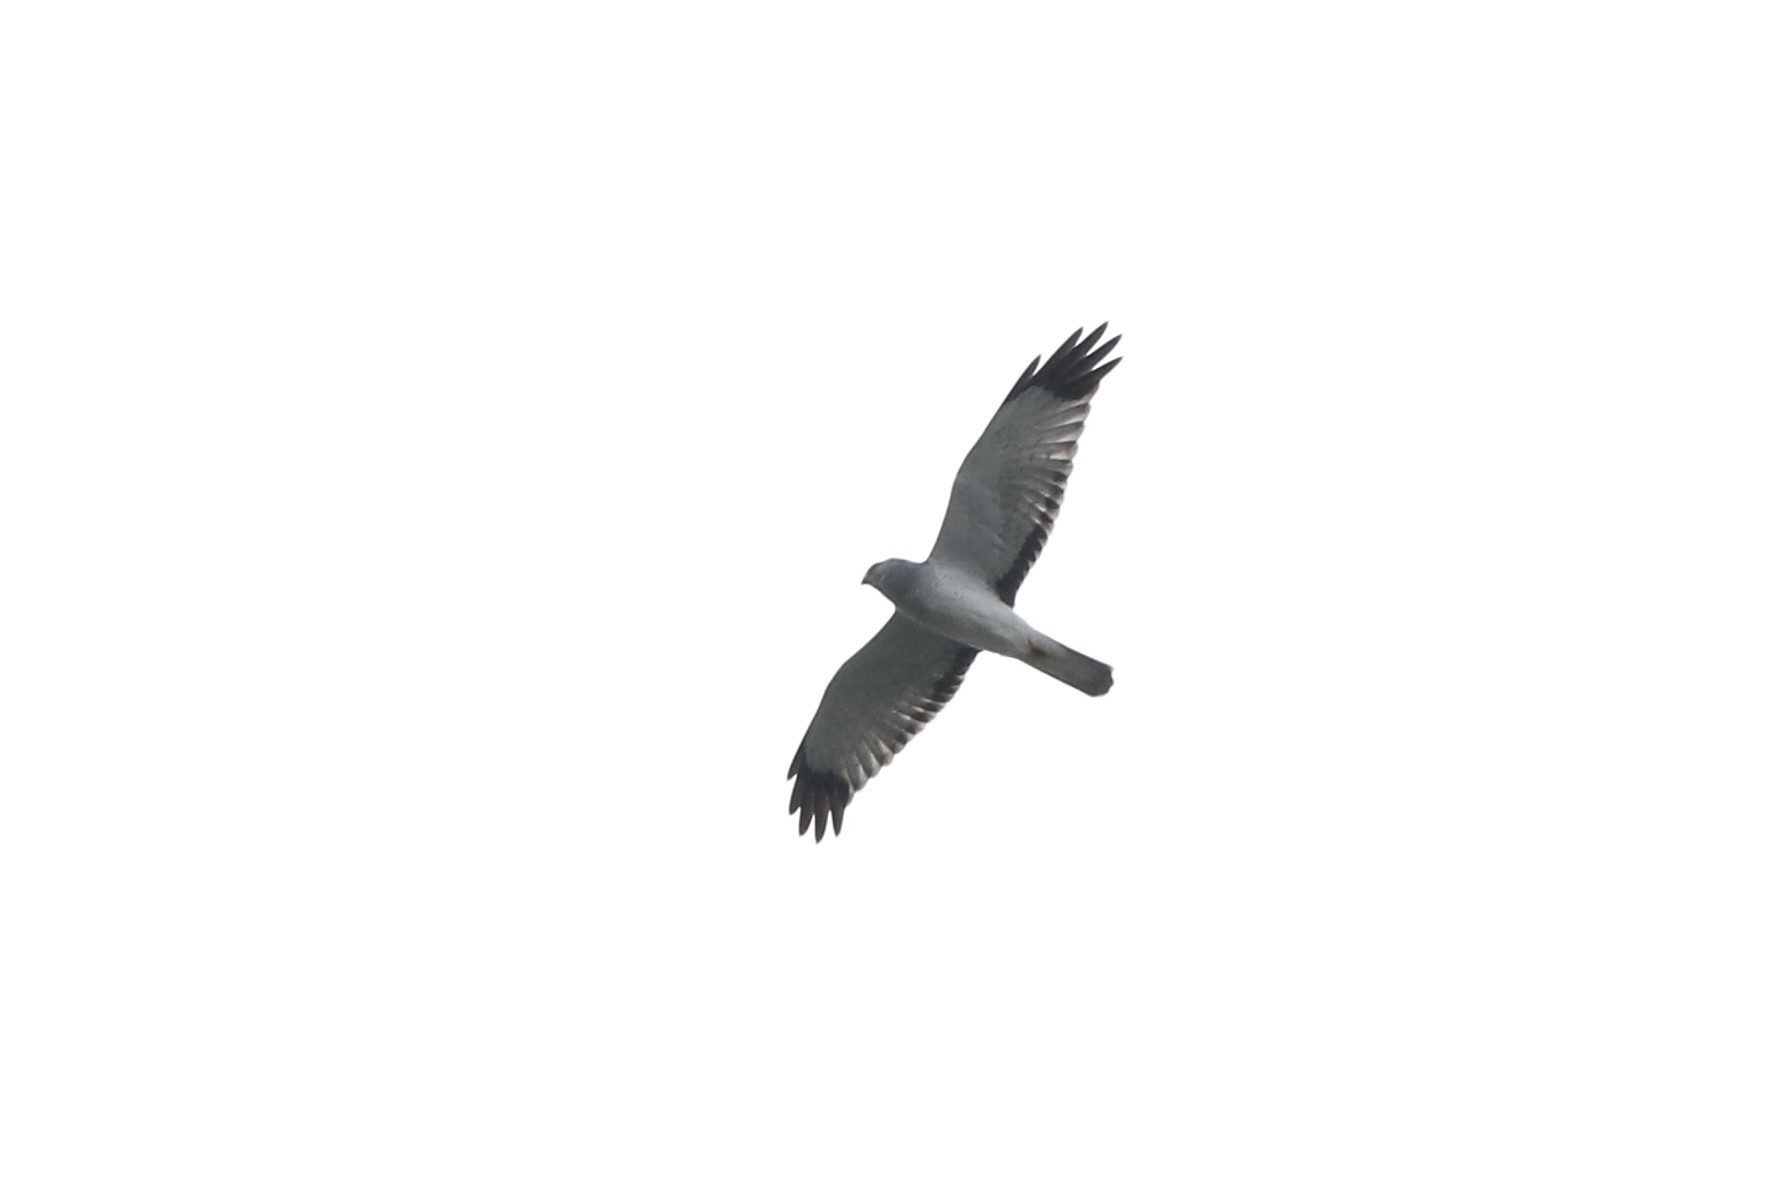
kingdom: Animalia
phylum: Chordata
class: Aves
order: Accipitriformes
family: Accipitridae
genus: Circus
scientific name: Circus cyaneus
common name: Hen harrier
